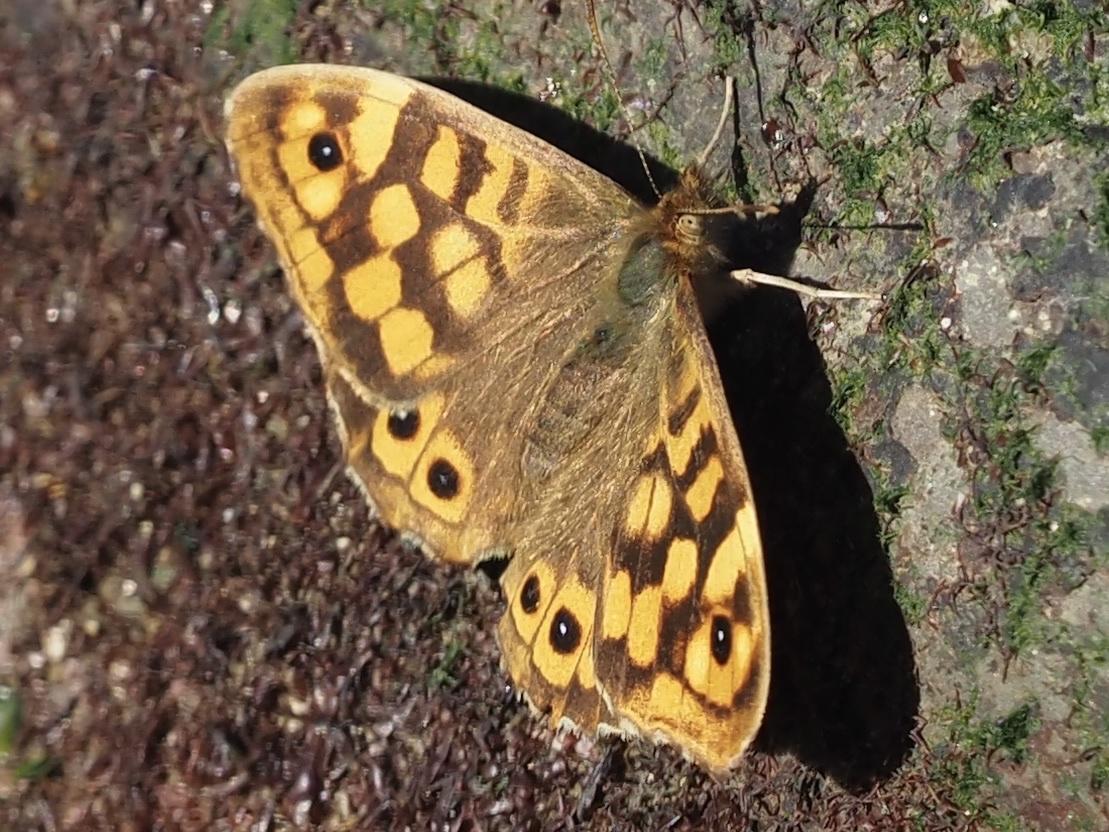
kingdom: Animalia
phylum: Arthropoda
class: Insecta
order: Lepidoptera
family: Nymphalidae
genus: Pararge
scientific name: Pararge aegeria
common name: Speckled wood
